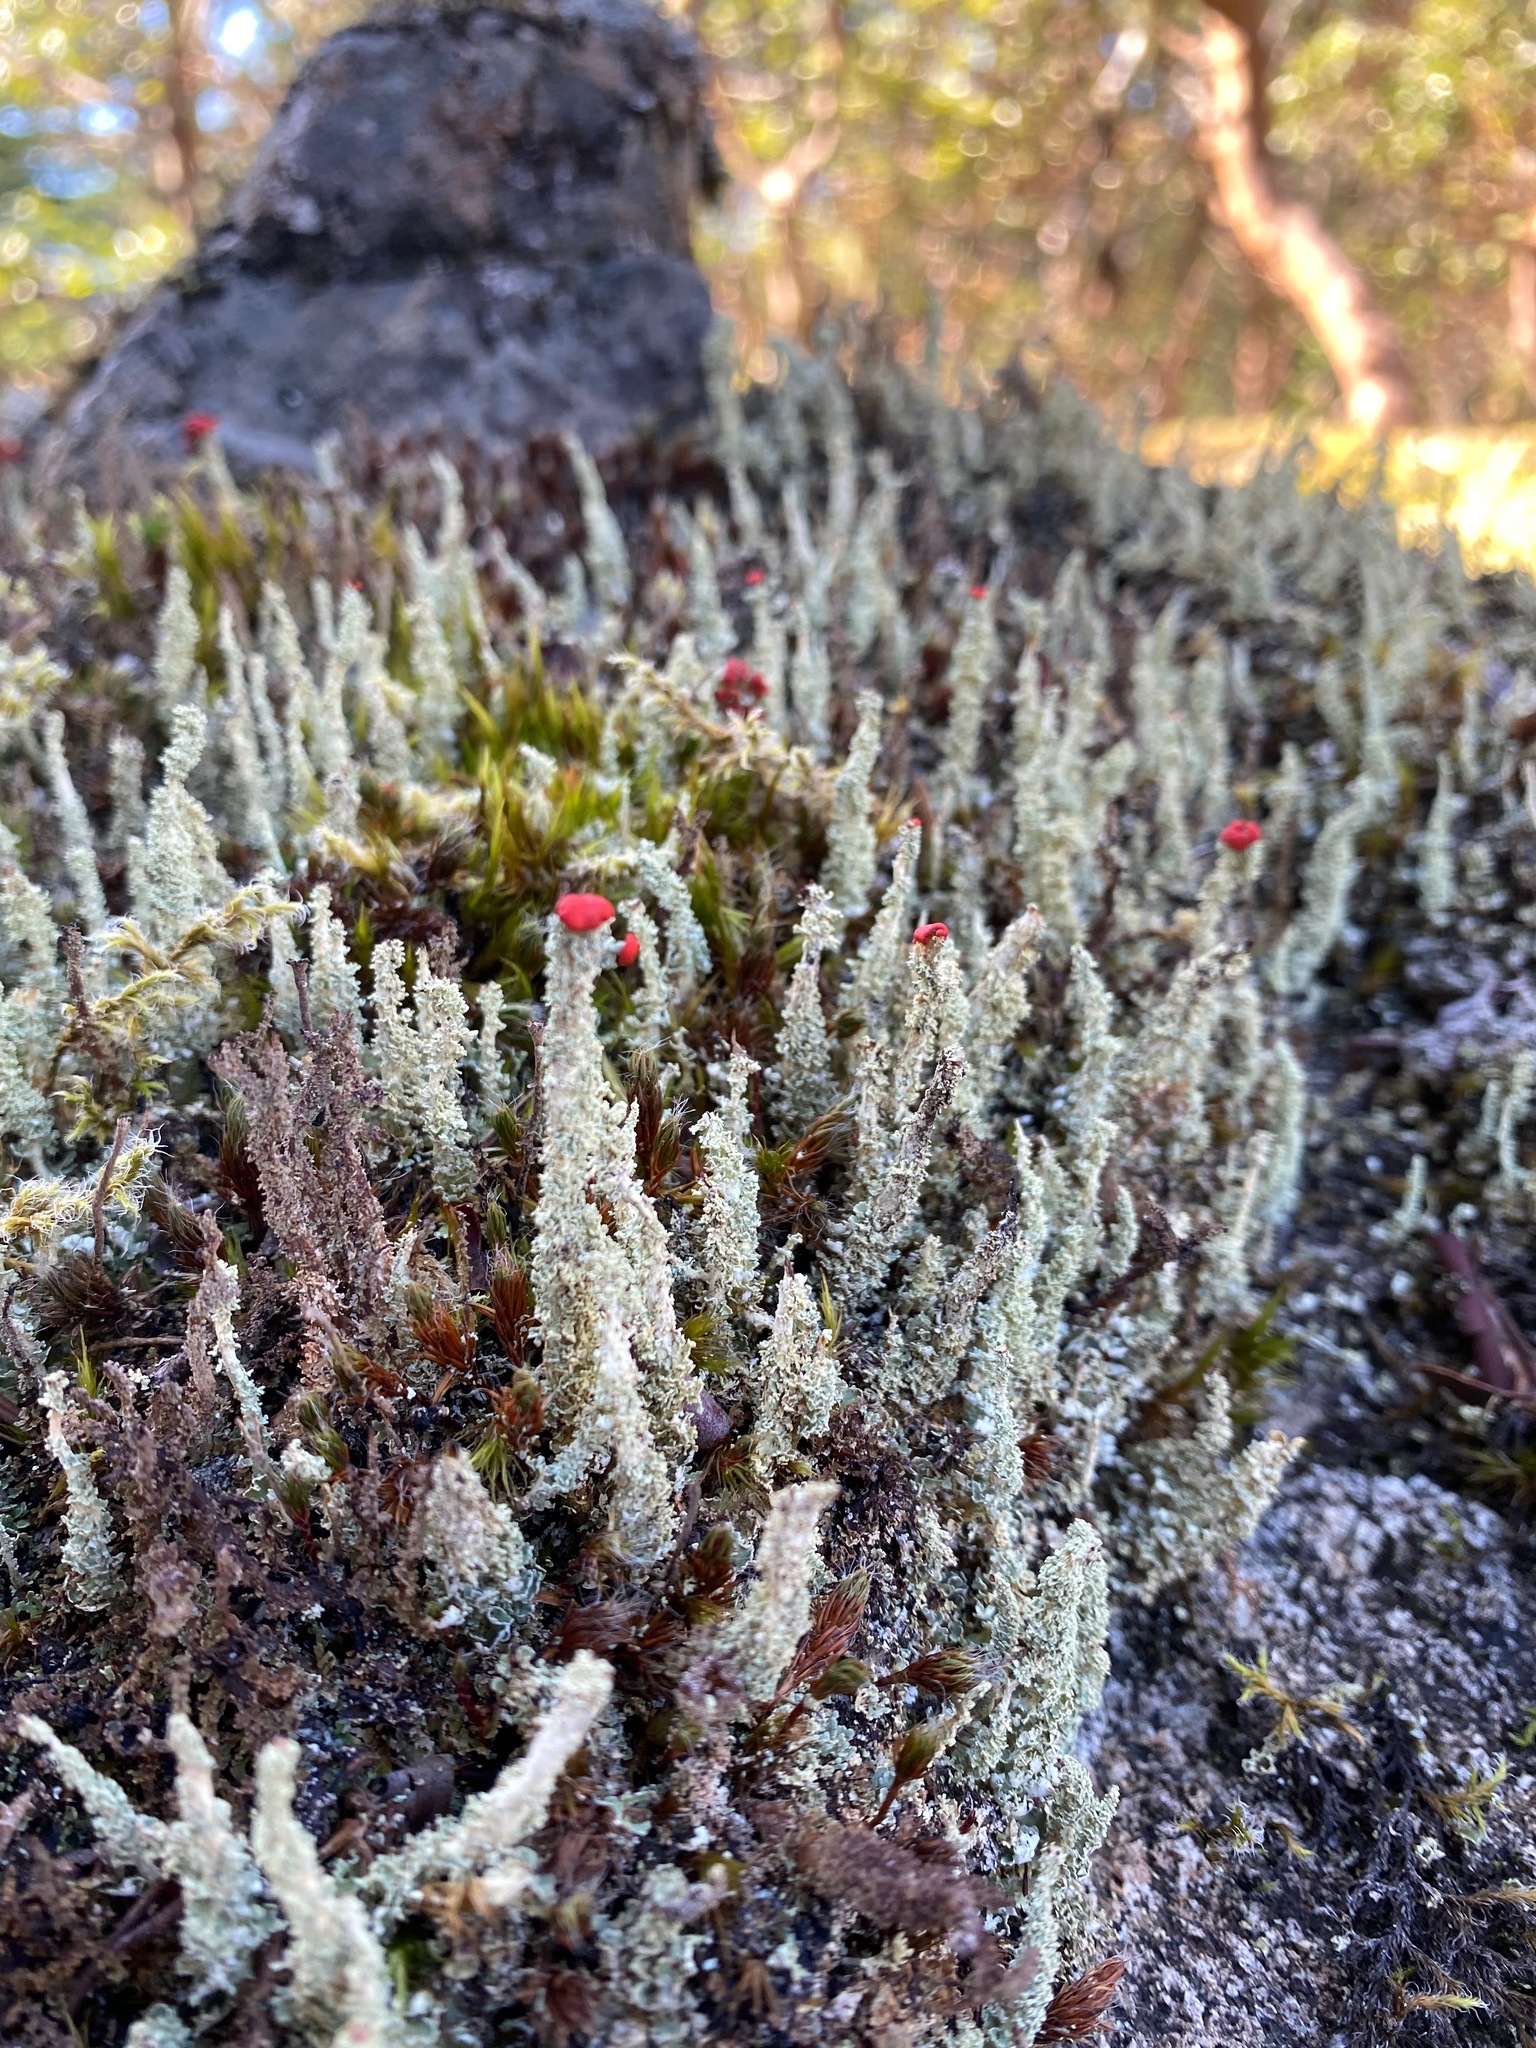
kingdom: Fungi
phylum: Ascomycota
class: Lecanoromycetes
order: Lecanorales
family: Cladoniaceae
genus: Cladonia
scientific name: Cladonia bellidiflora
